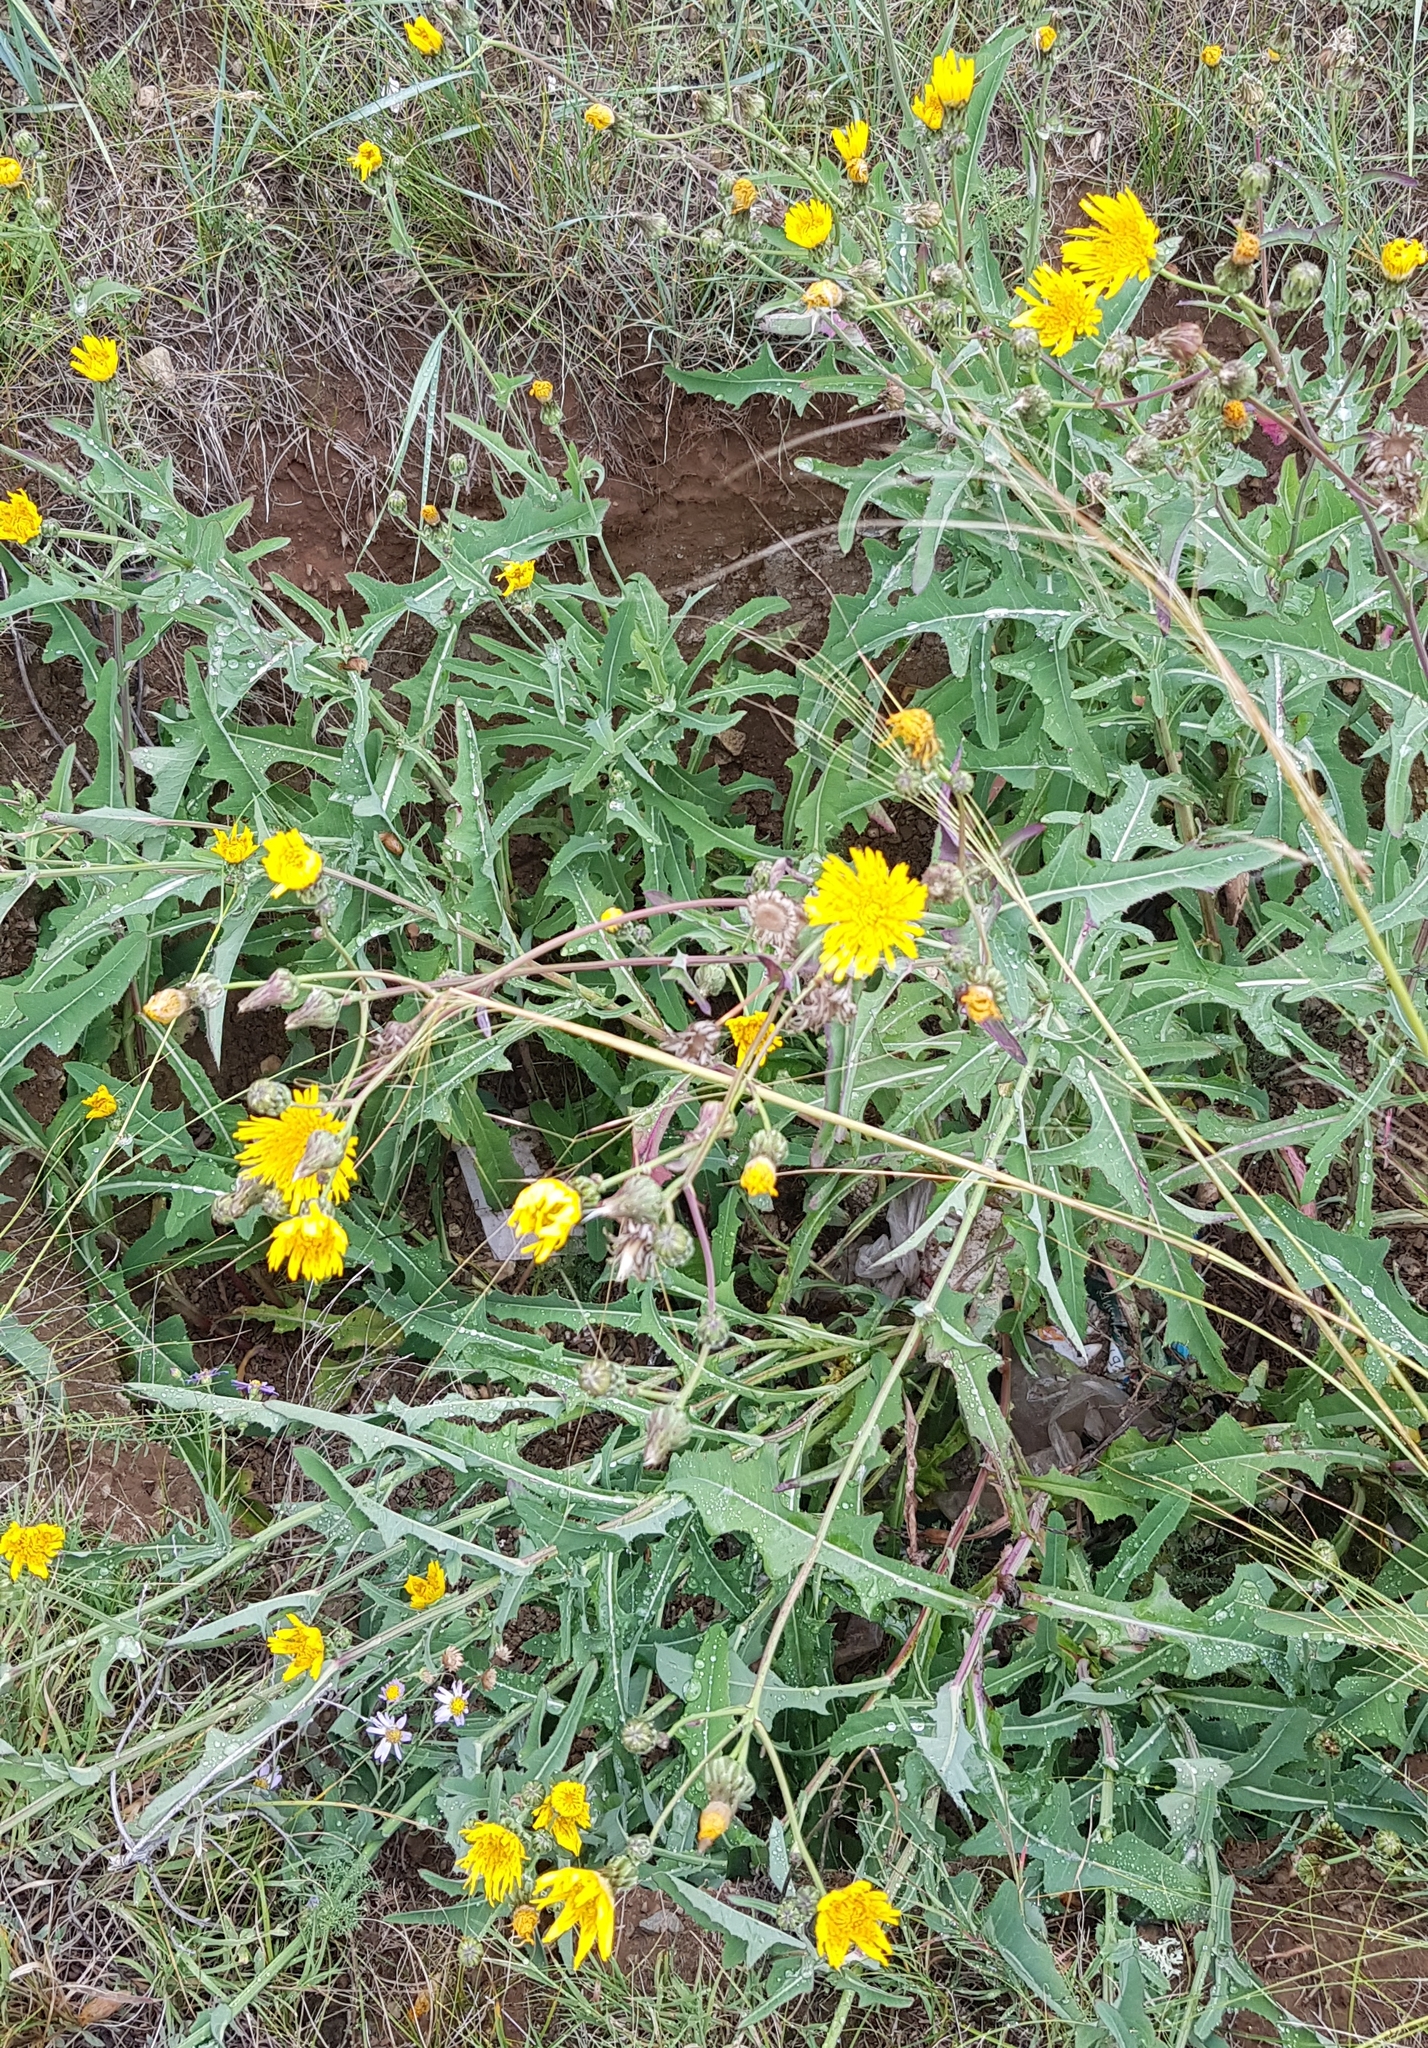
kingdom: Plantae
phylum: Tracheophyta
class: Magnoliopsida
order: Asterales
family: Asteraceae
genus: Sonchus
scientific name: Sonchus arvensis
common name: Perennial sow-thistle
